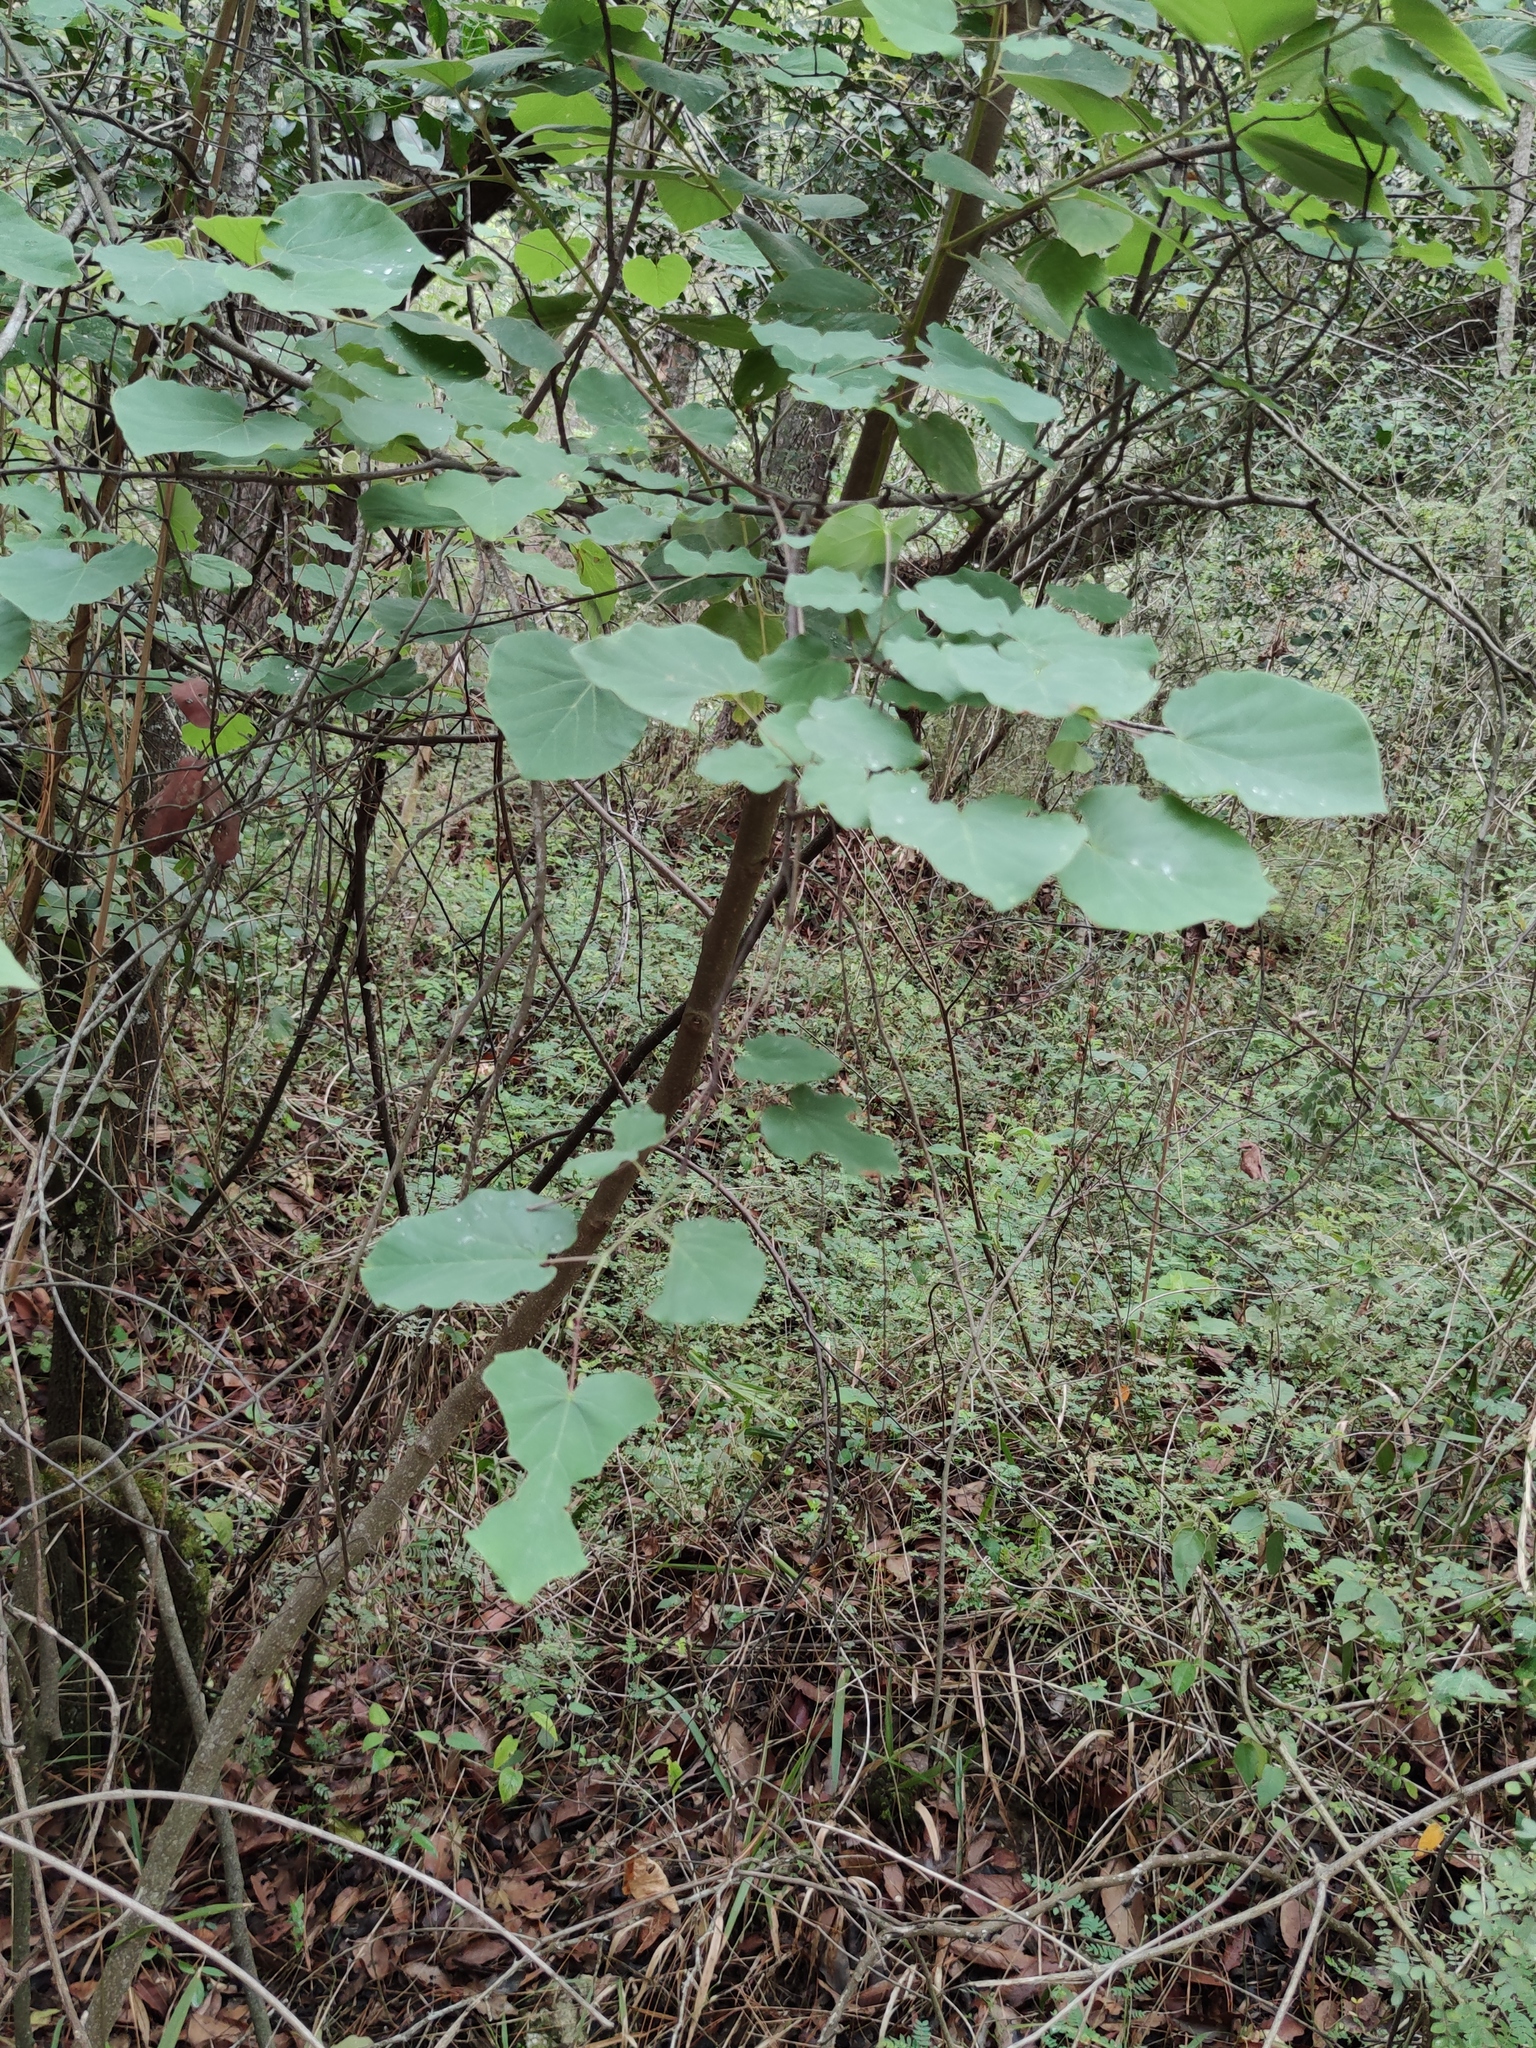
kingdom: Plantae
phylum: Tracheophyta
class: Magnoliopsida
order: Fabales
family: Fabaceae
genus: Cercis
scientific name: Cercis canadensis
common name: Eastern redbud
